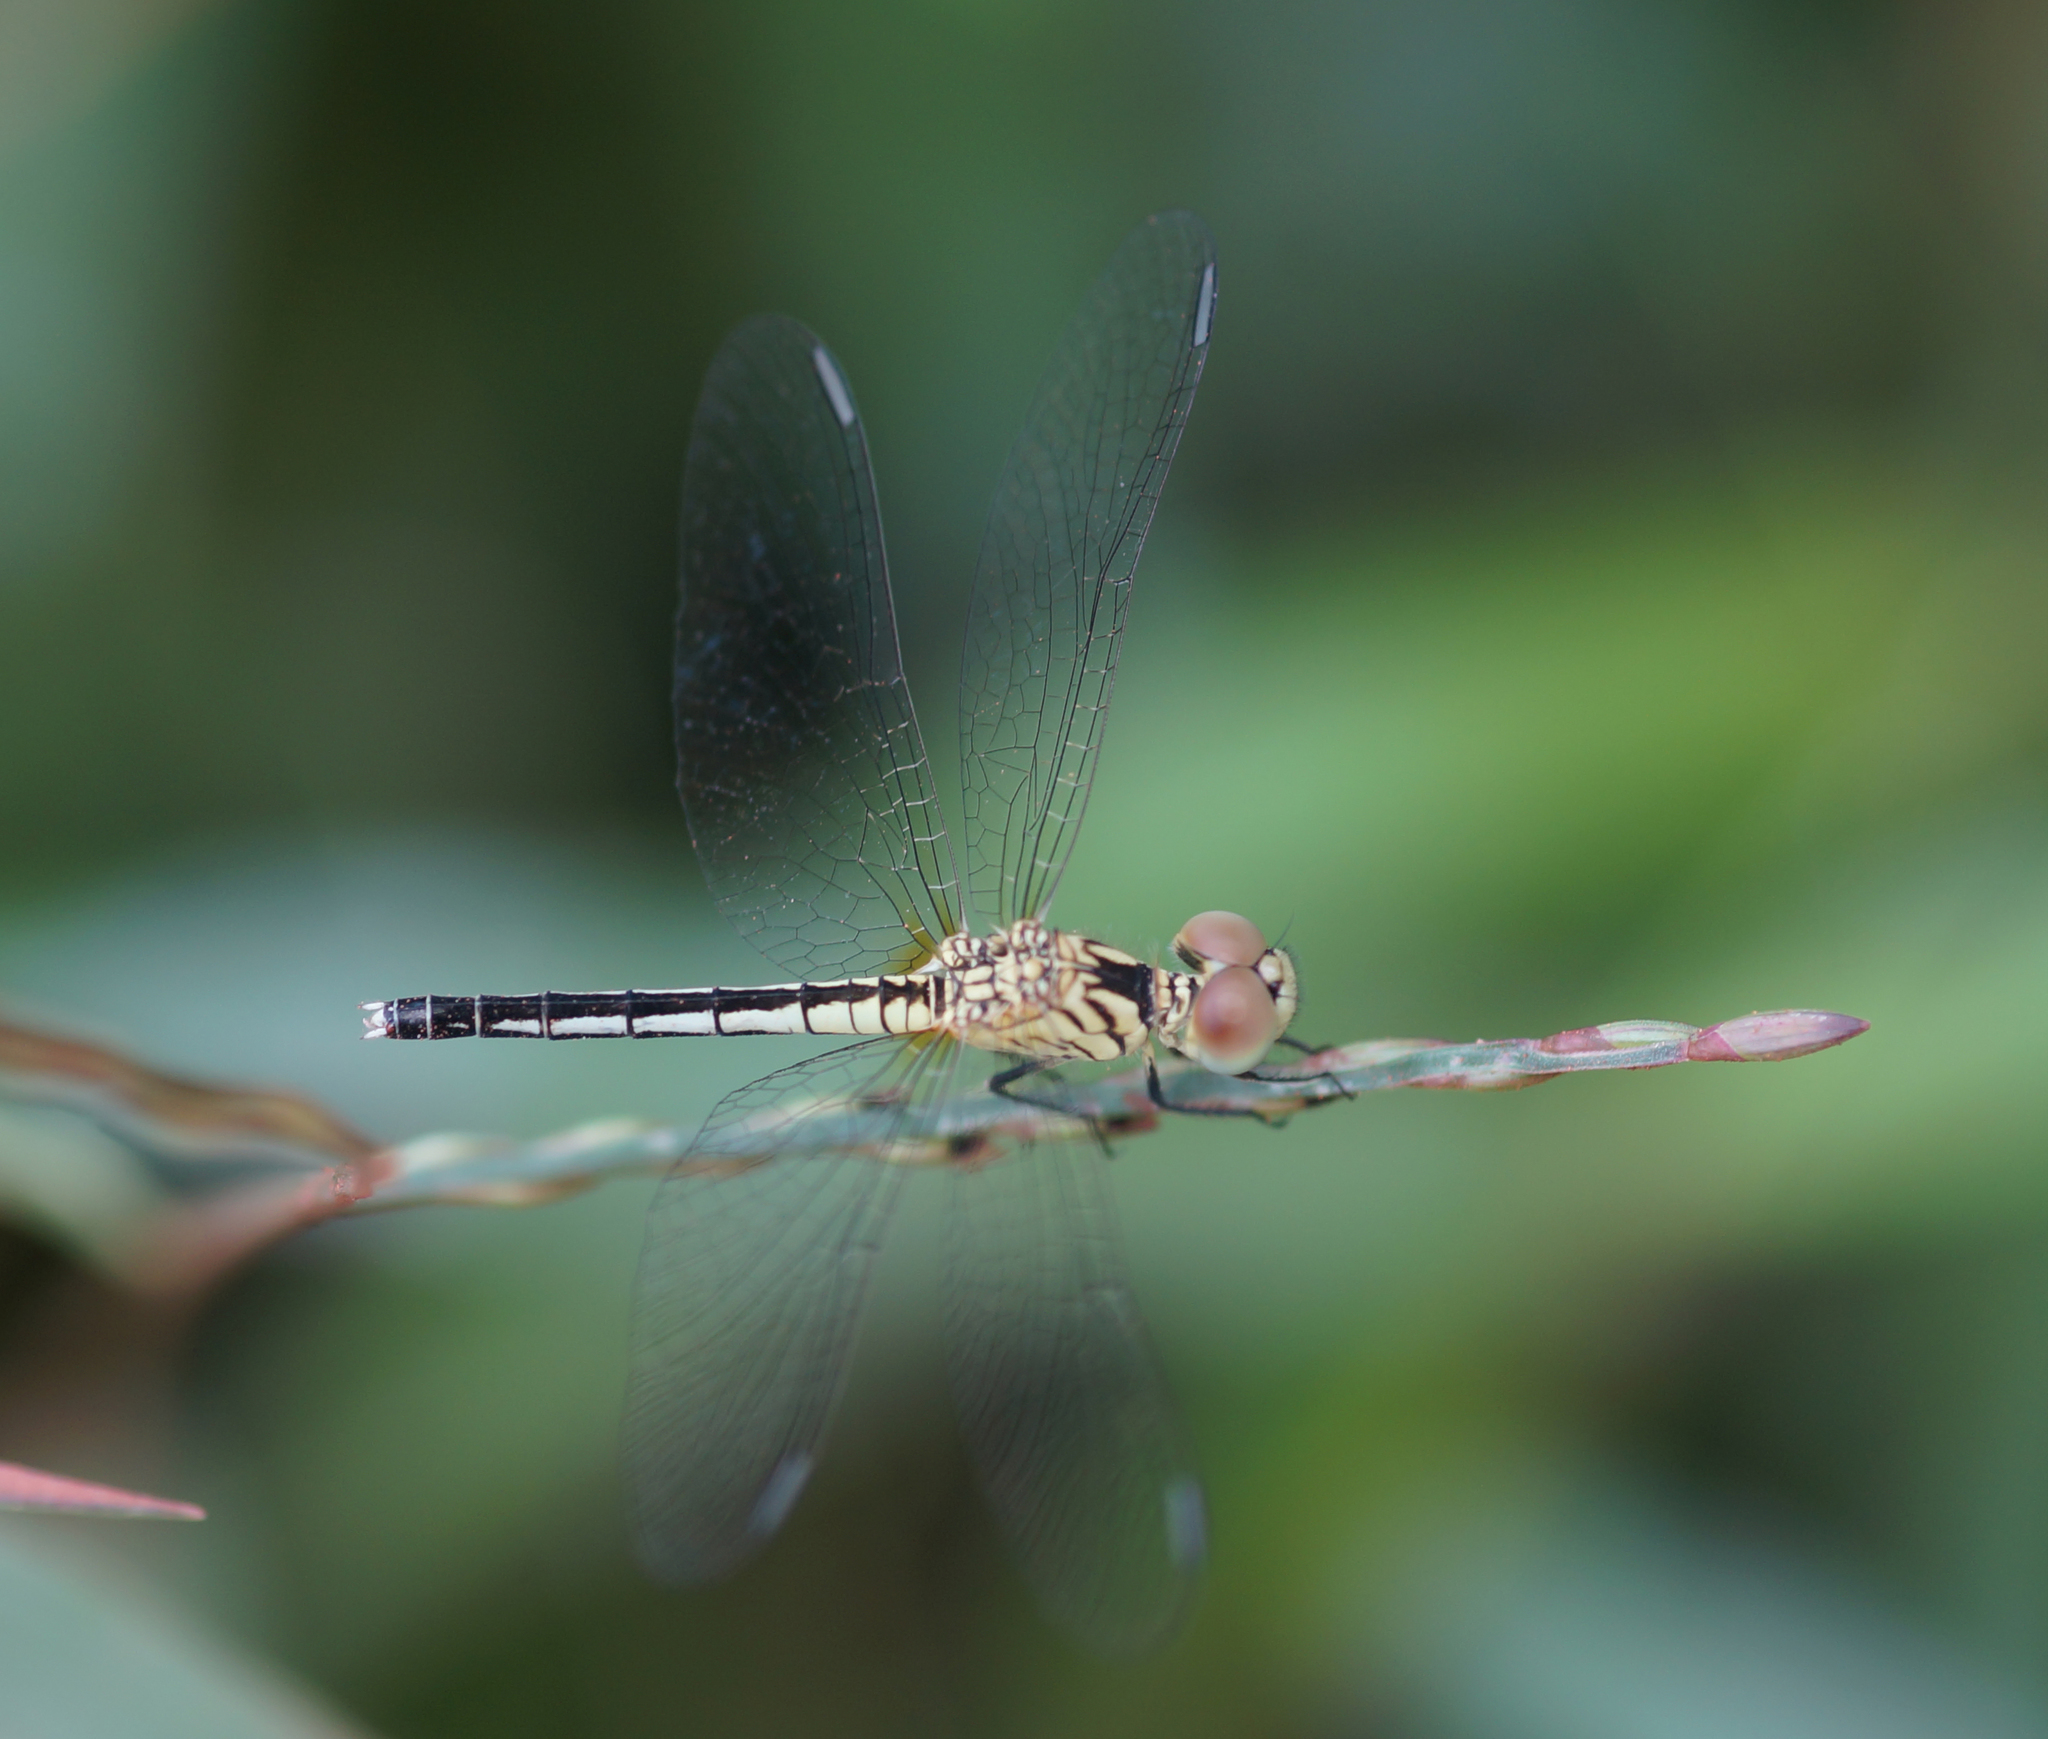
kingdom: Animalia
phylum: Arthropoda
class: Insecta
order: Odonata
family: Libellulidae
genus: Diplacodes
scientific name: Diplacodes nebulosa
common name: Black-tipped percher
